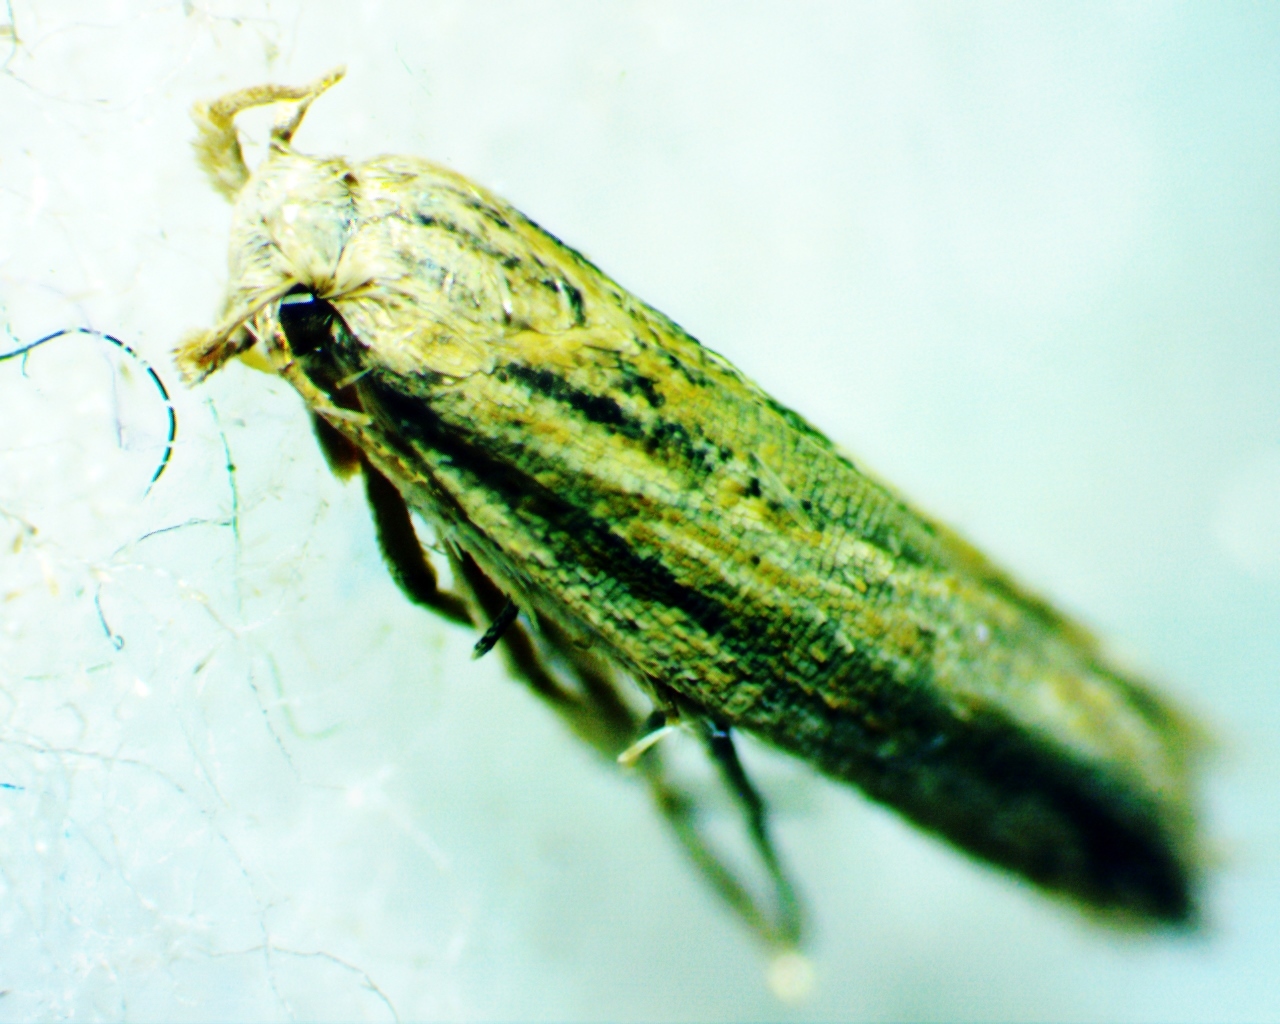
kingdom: Animalia
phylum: Arthropoda
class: Insecta
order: Lepidoptera
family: Gelechiidae
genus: Symmetrischema
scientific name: Symmetrischema striatella
